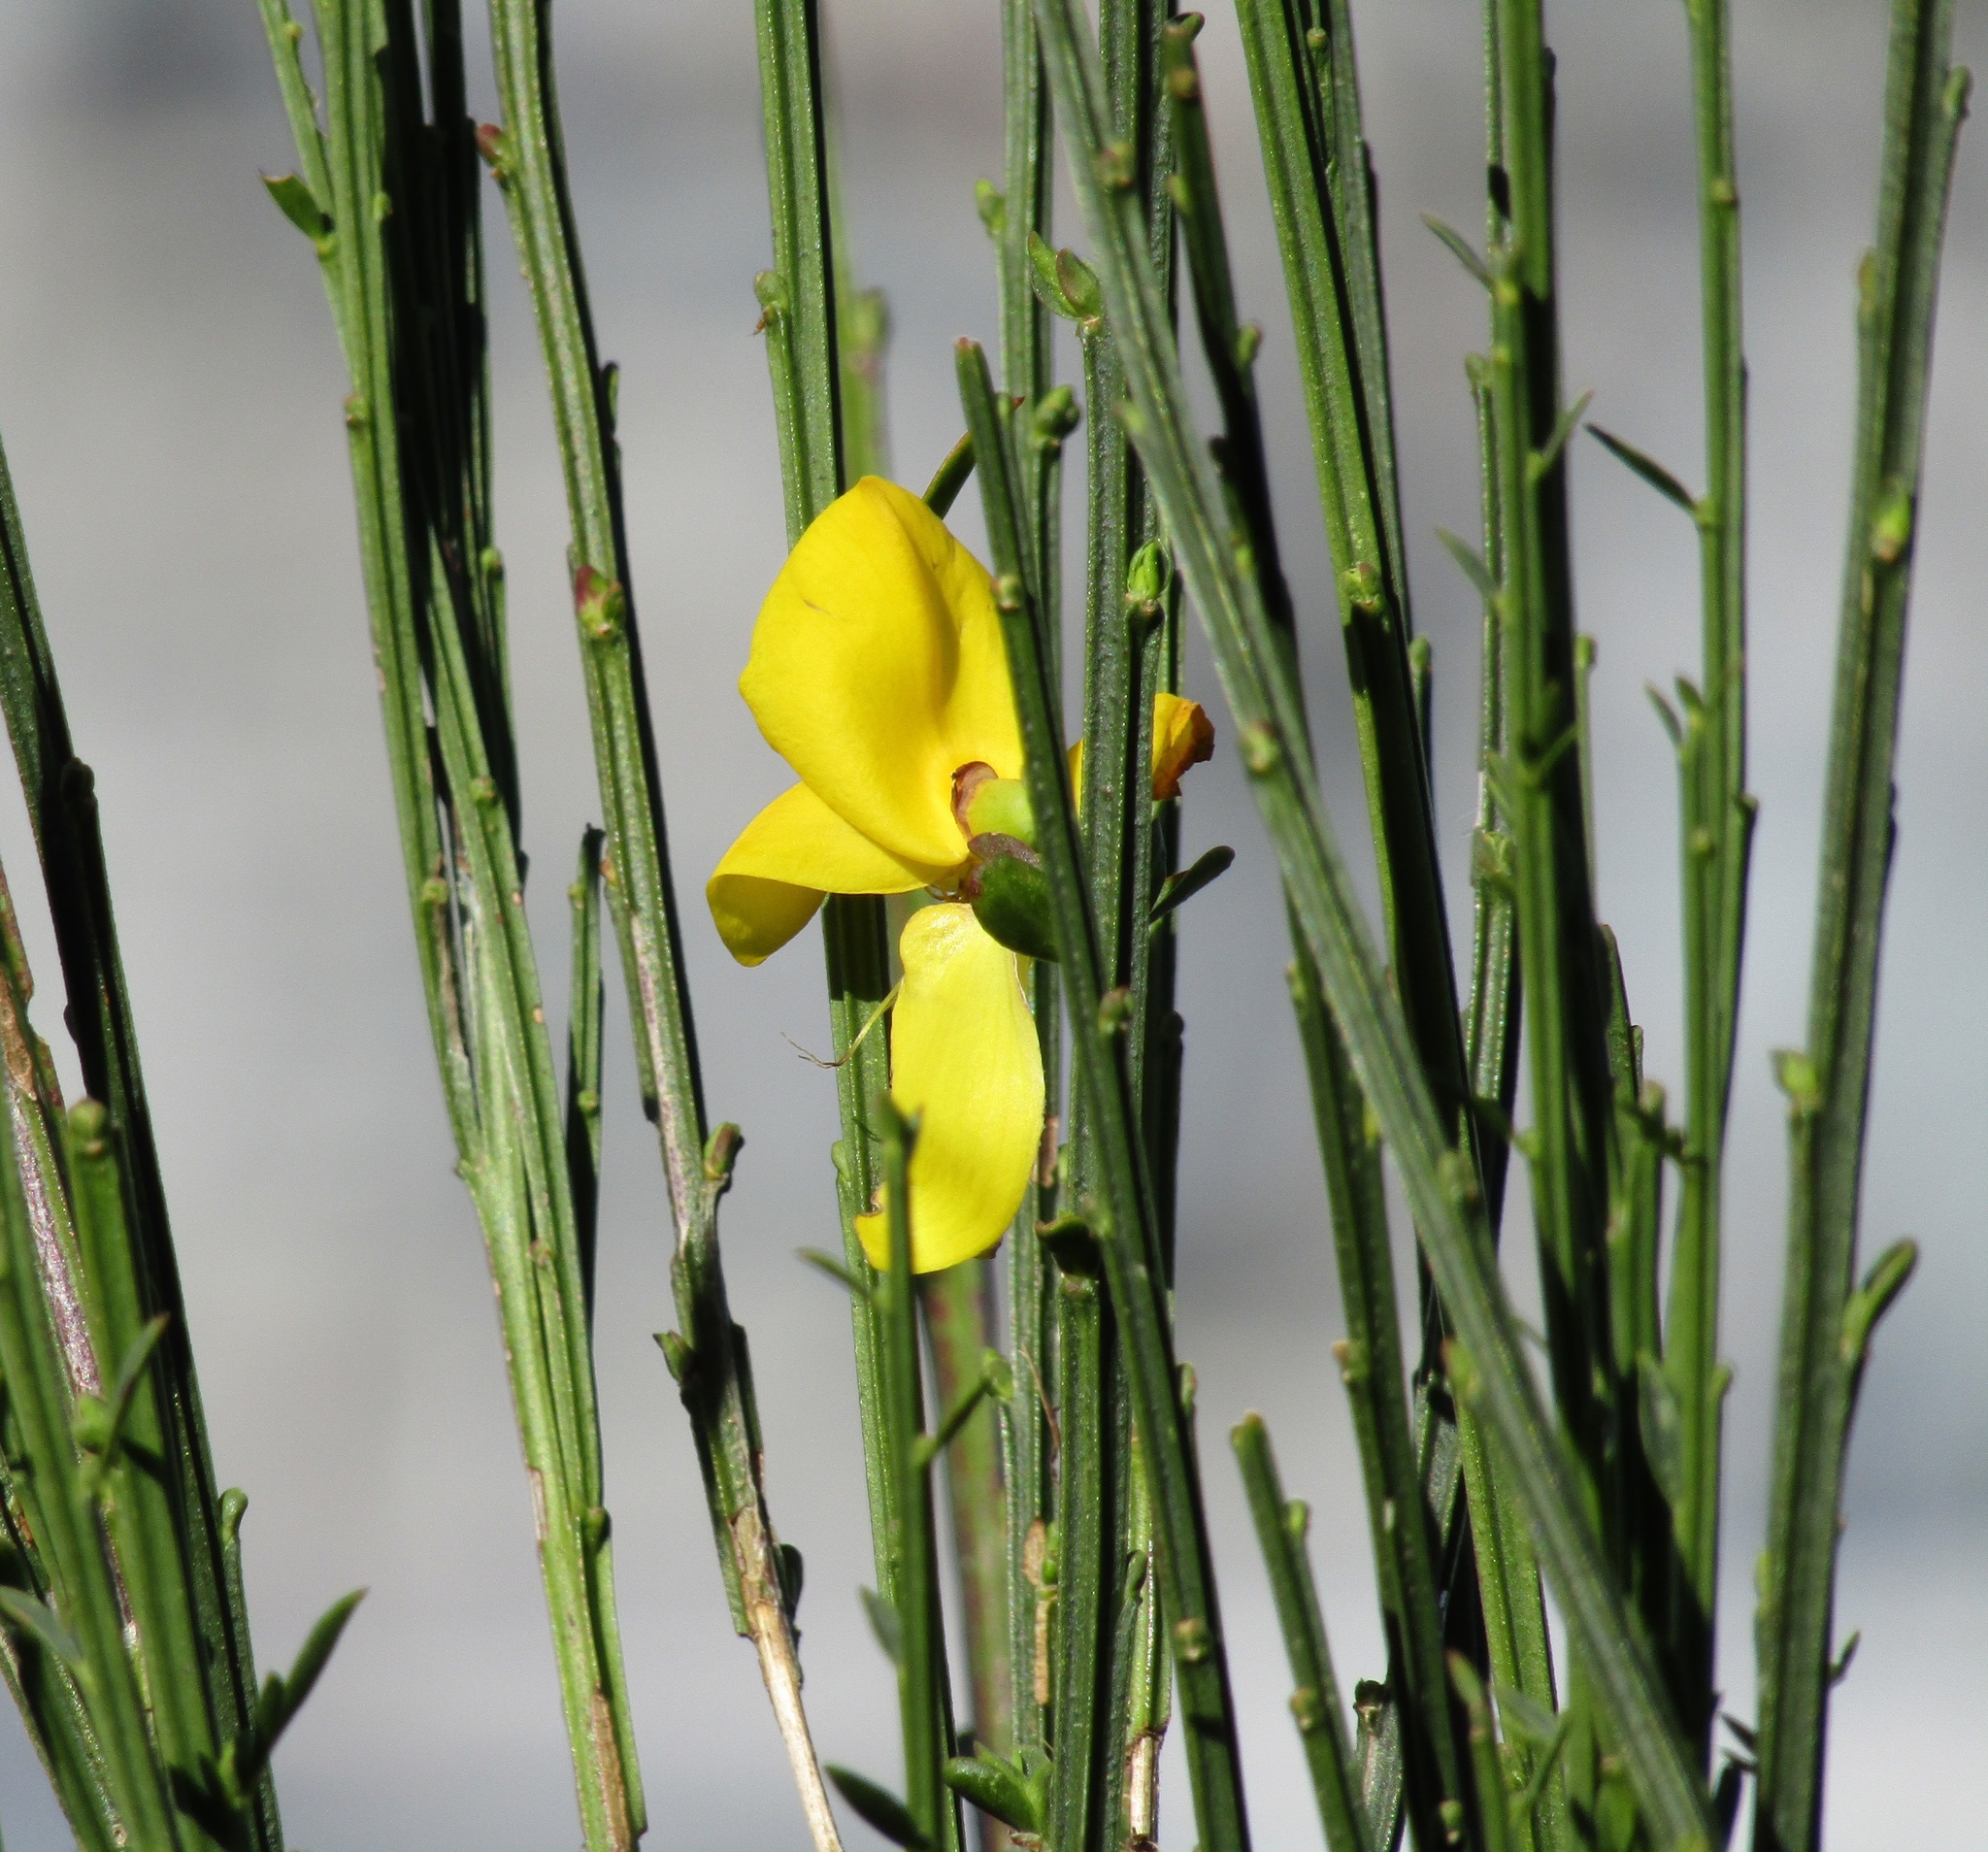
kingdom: Plantae
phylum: Tracheophyta
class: Magnoliopsida
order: Fabales
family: Fabaceae
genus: Cytisus
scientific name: Cytisus scoparius
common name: Scotch broom
